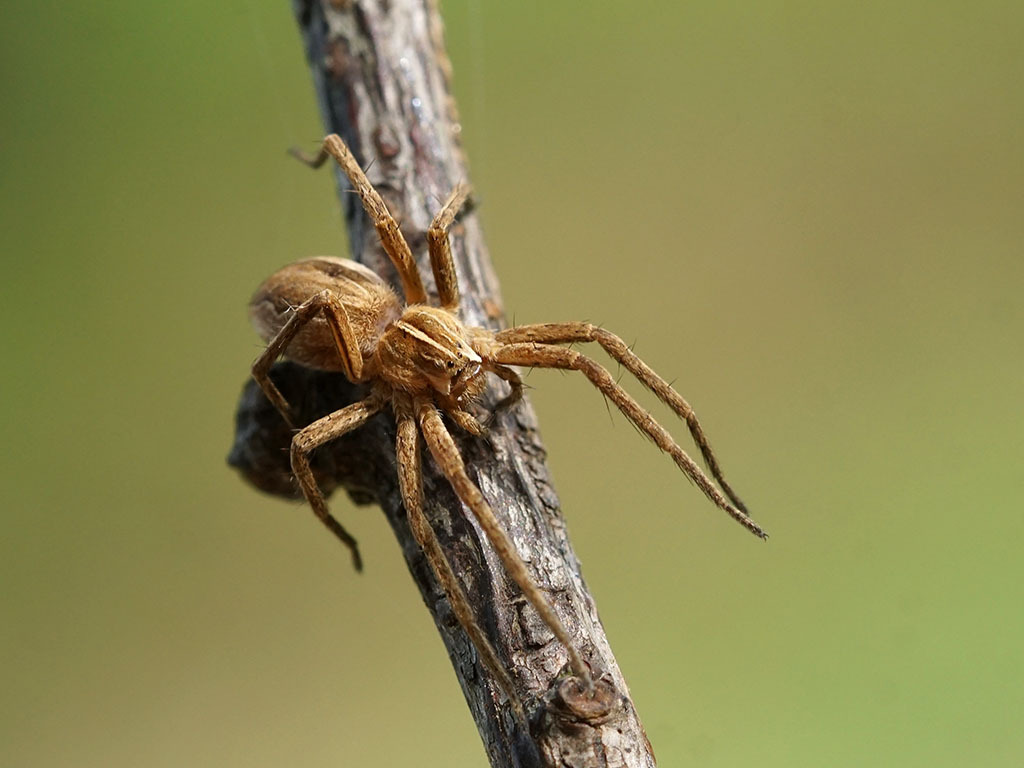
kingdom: Animalia
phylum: Arthropoda
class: Arachnida
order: Araneae
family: Pisauridae
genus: Pisaura
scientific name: Pisaura mirabilis
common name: Tent spider
